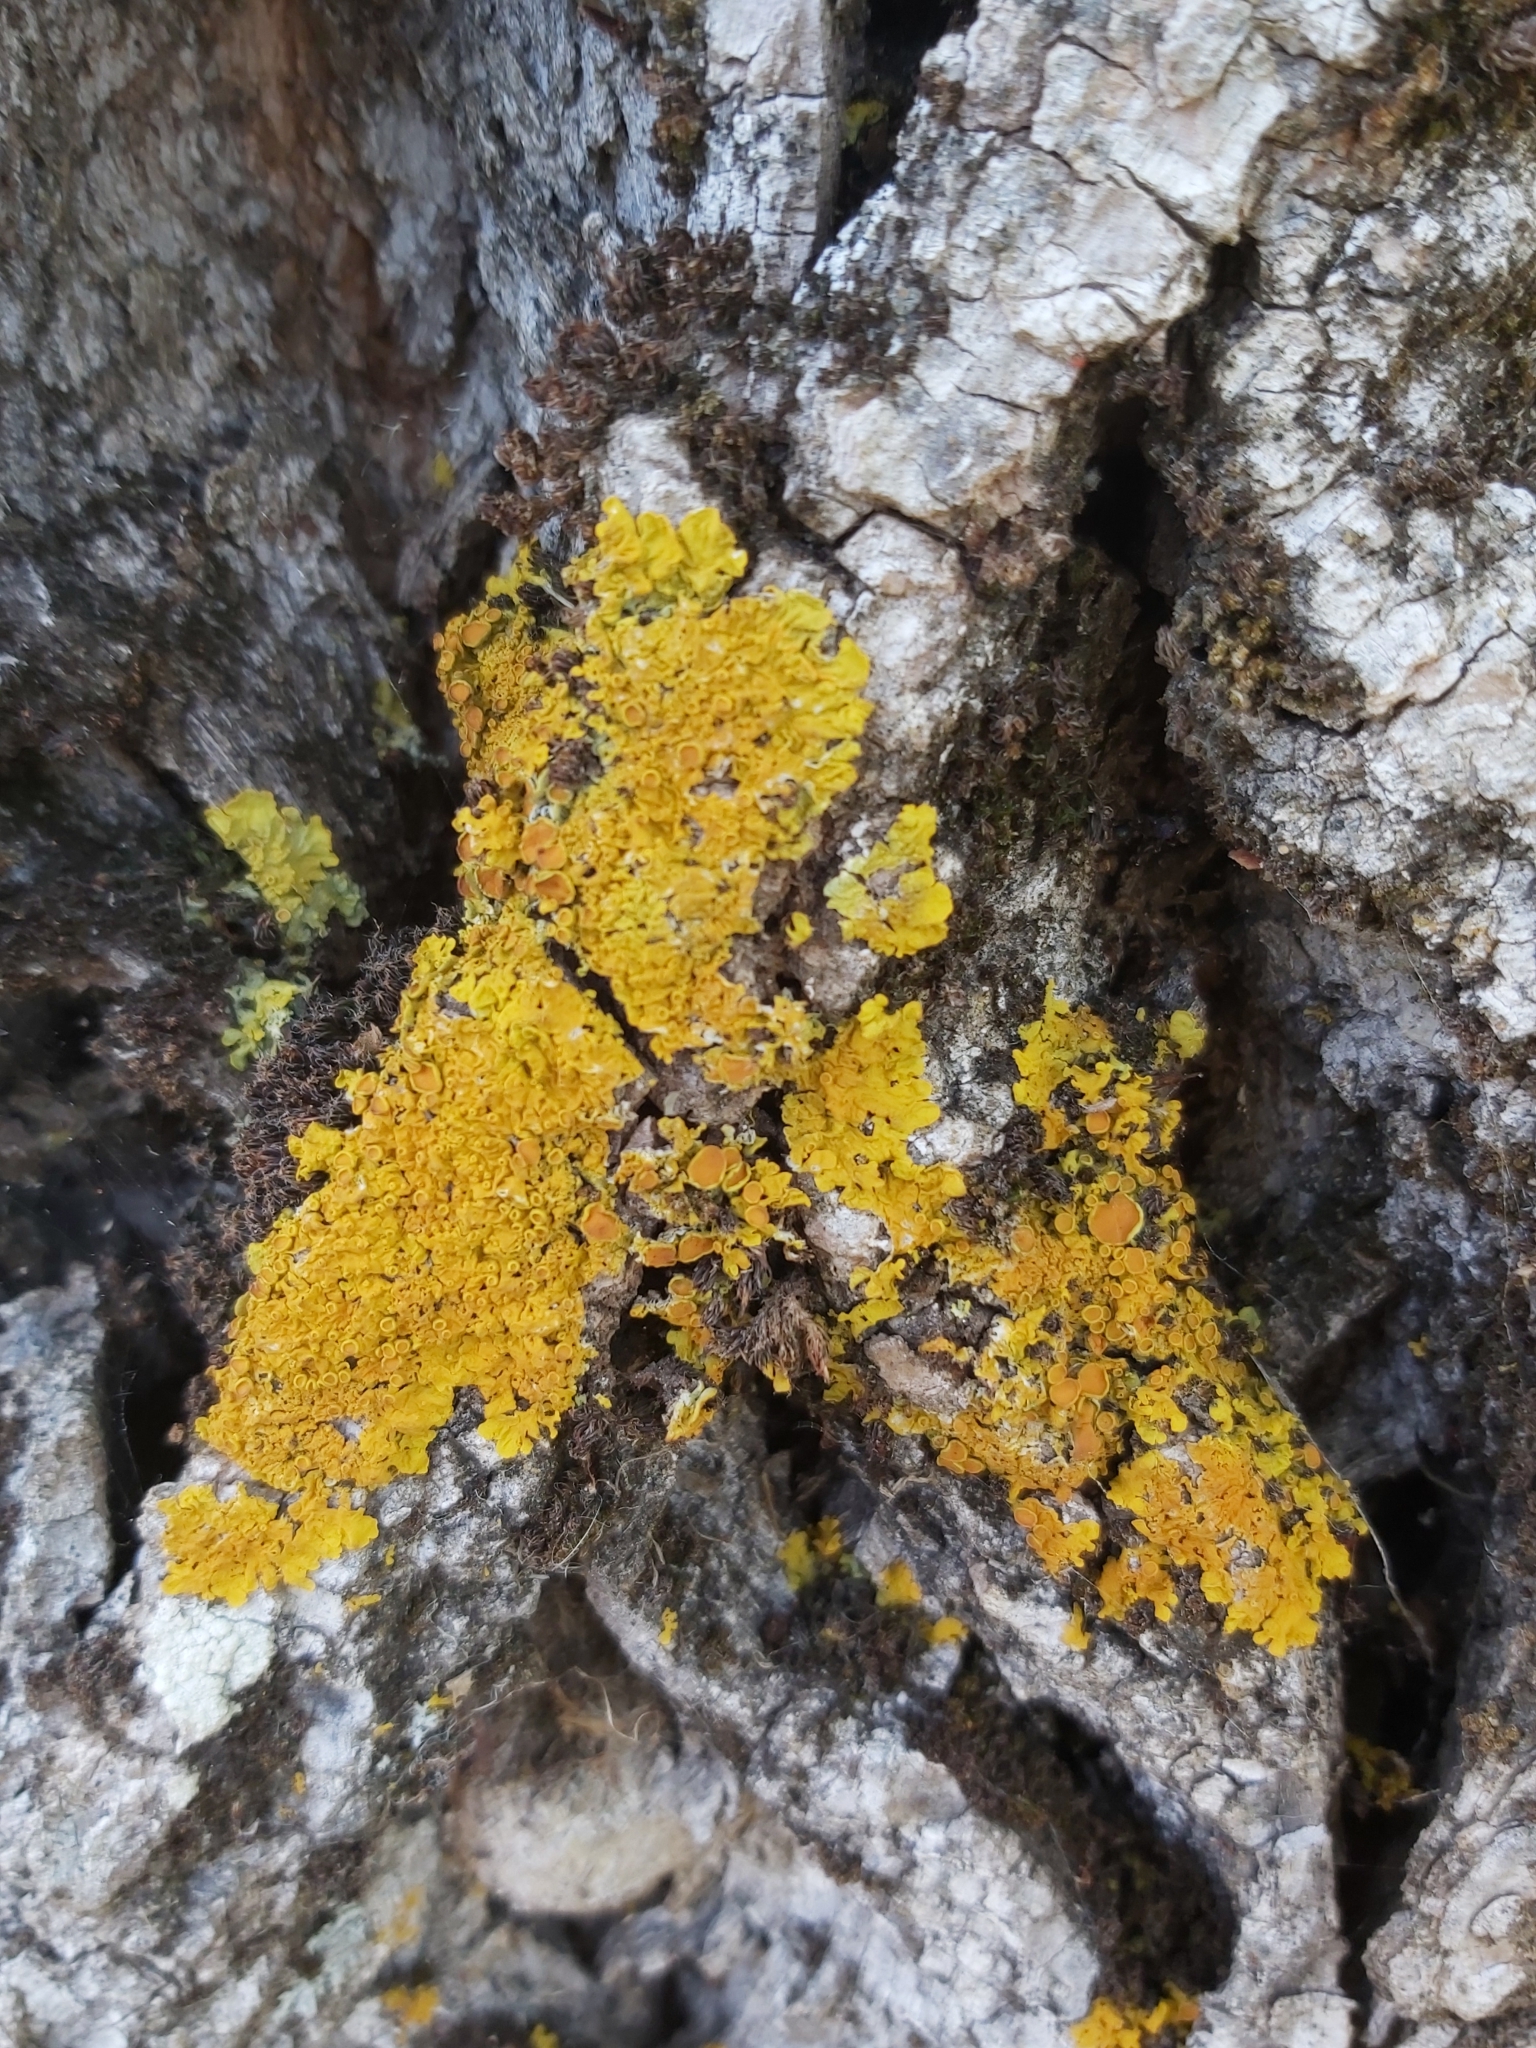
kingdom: Fungi
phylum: Ascomycota
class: Lecanoromycetes
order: Teloschistales
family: Teloschistaceae
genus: Xanthoria
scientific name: Xanthoria parietina
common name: Common orange lichen
